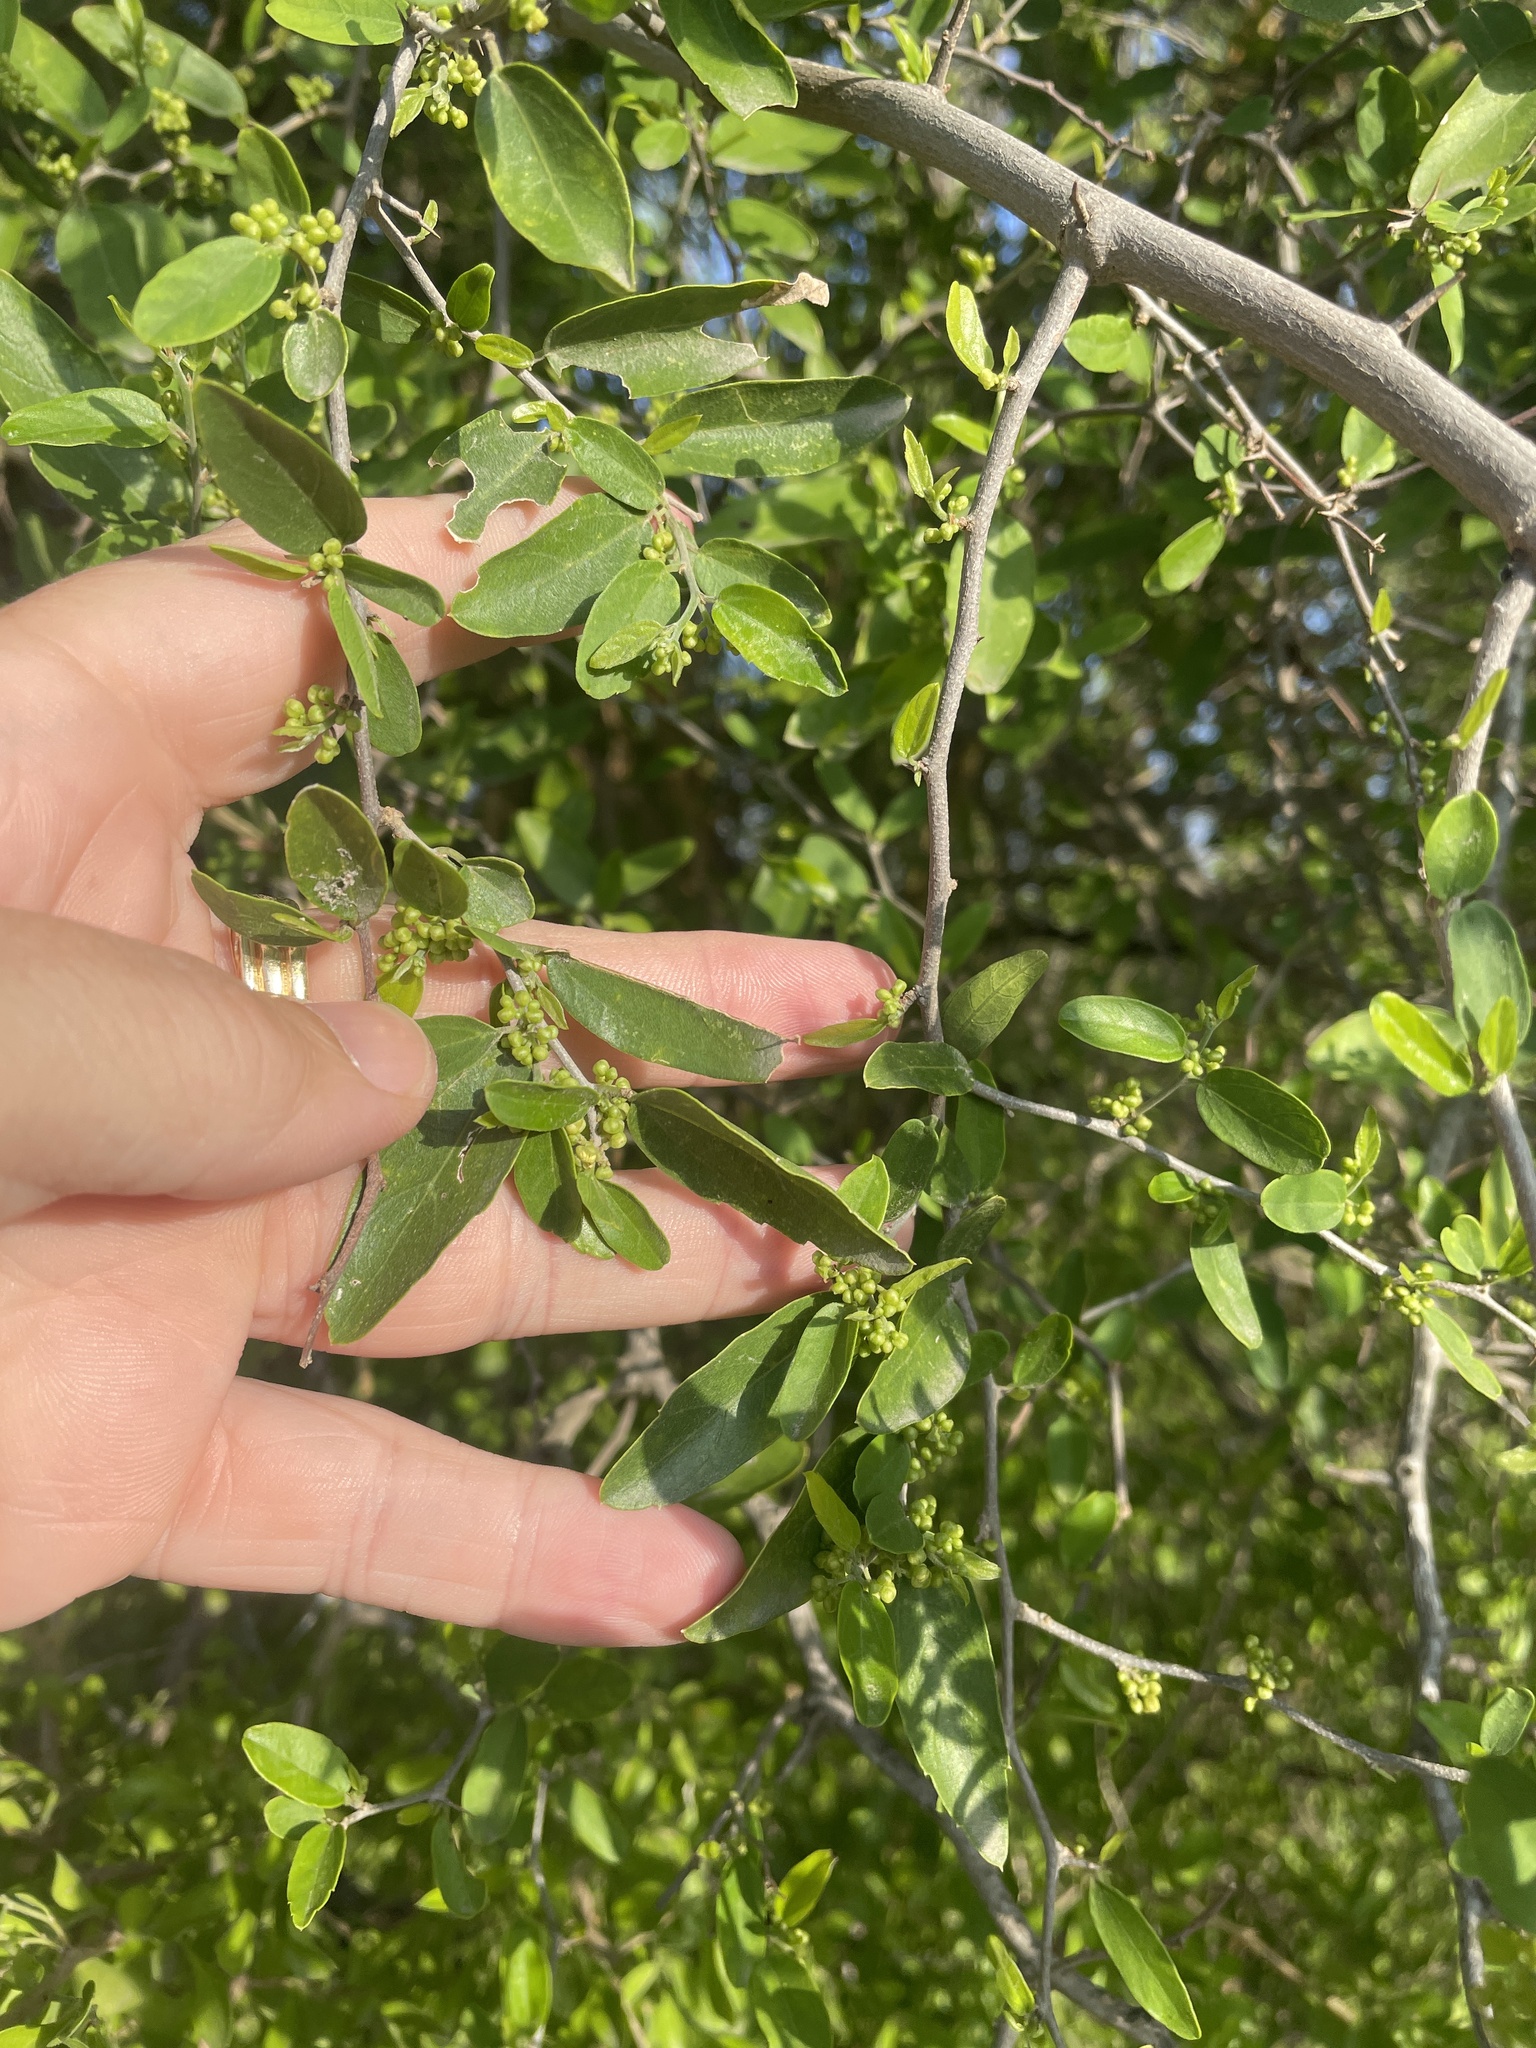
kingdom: Plantae
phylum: Tracheophyta
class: Magnoliopsida
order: Rosales
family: Cannabaceae
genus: Celtis
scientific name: Celtis pallida
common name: Desert hackberry
